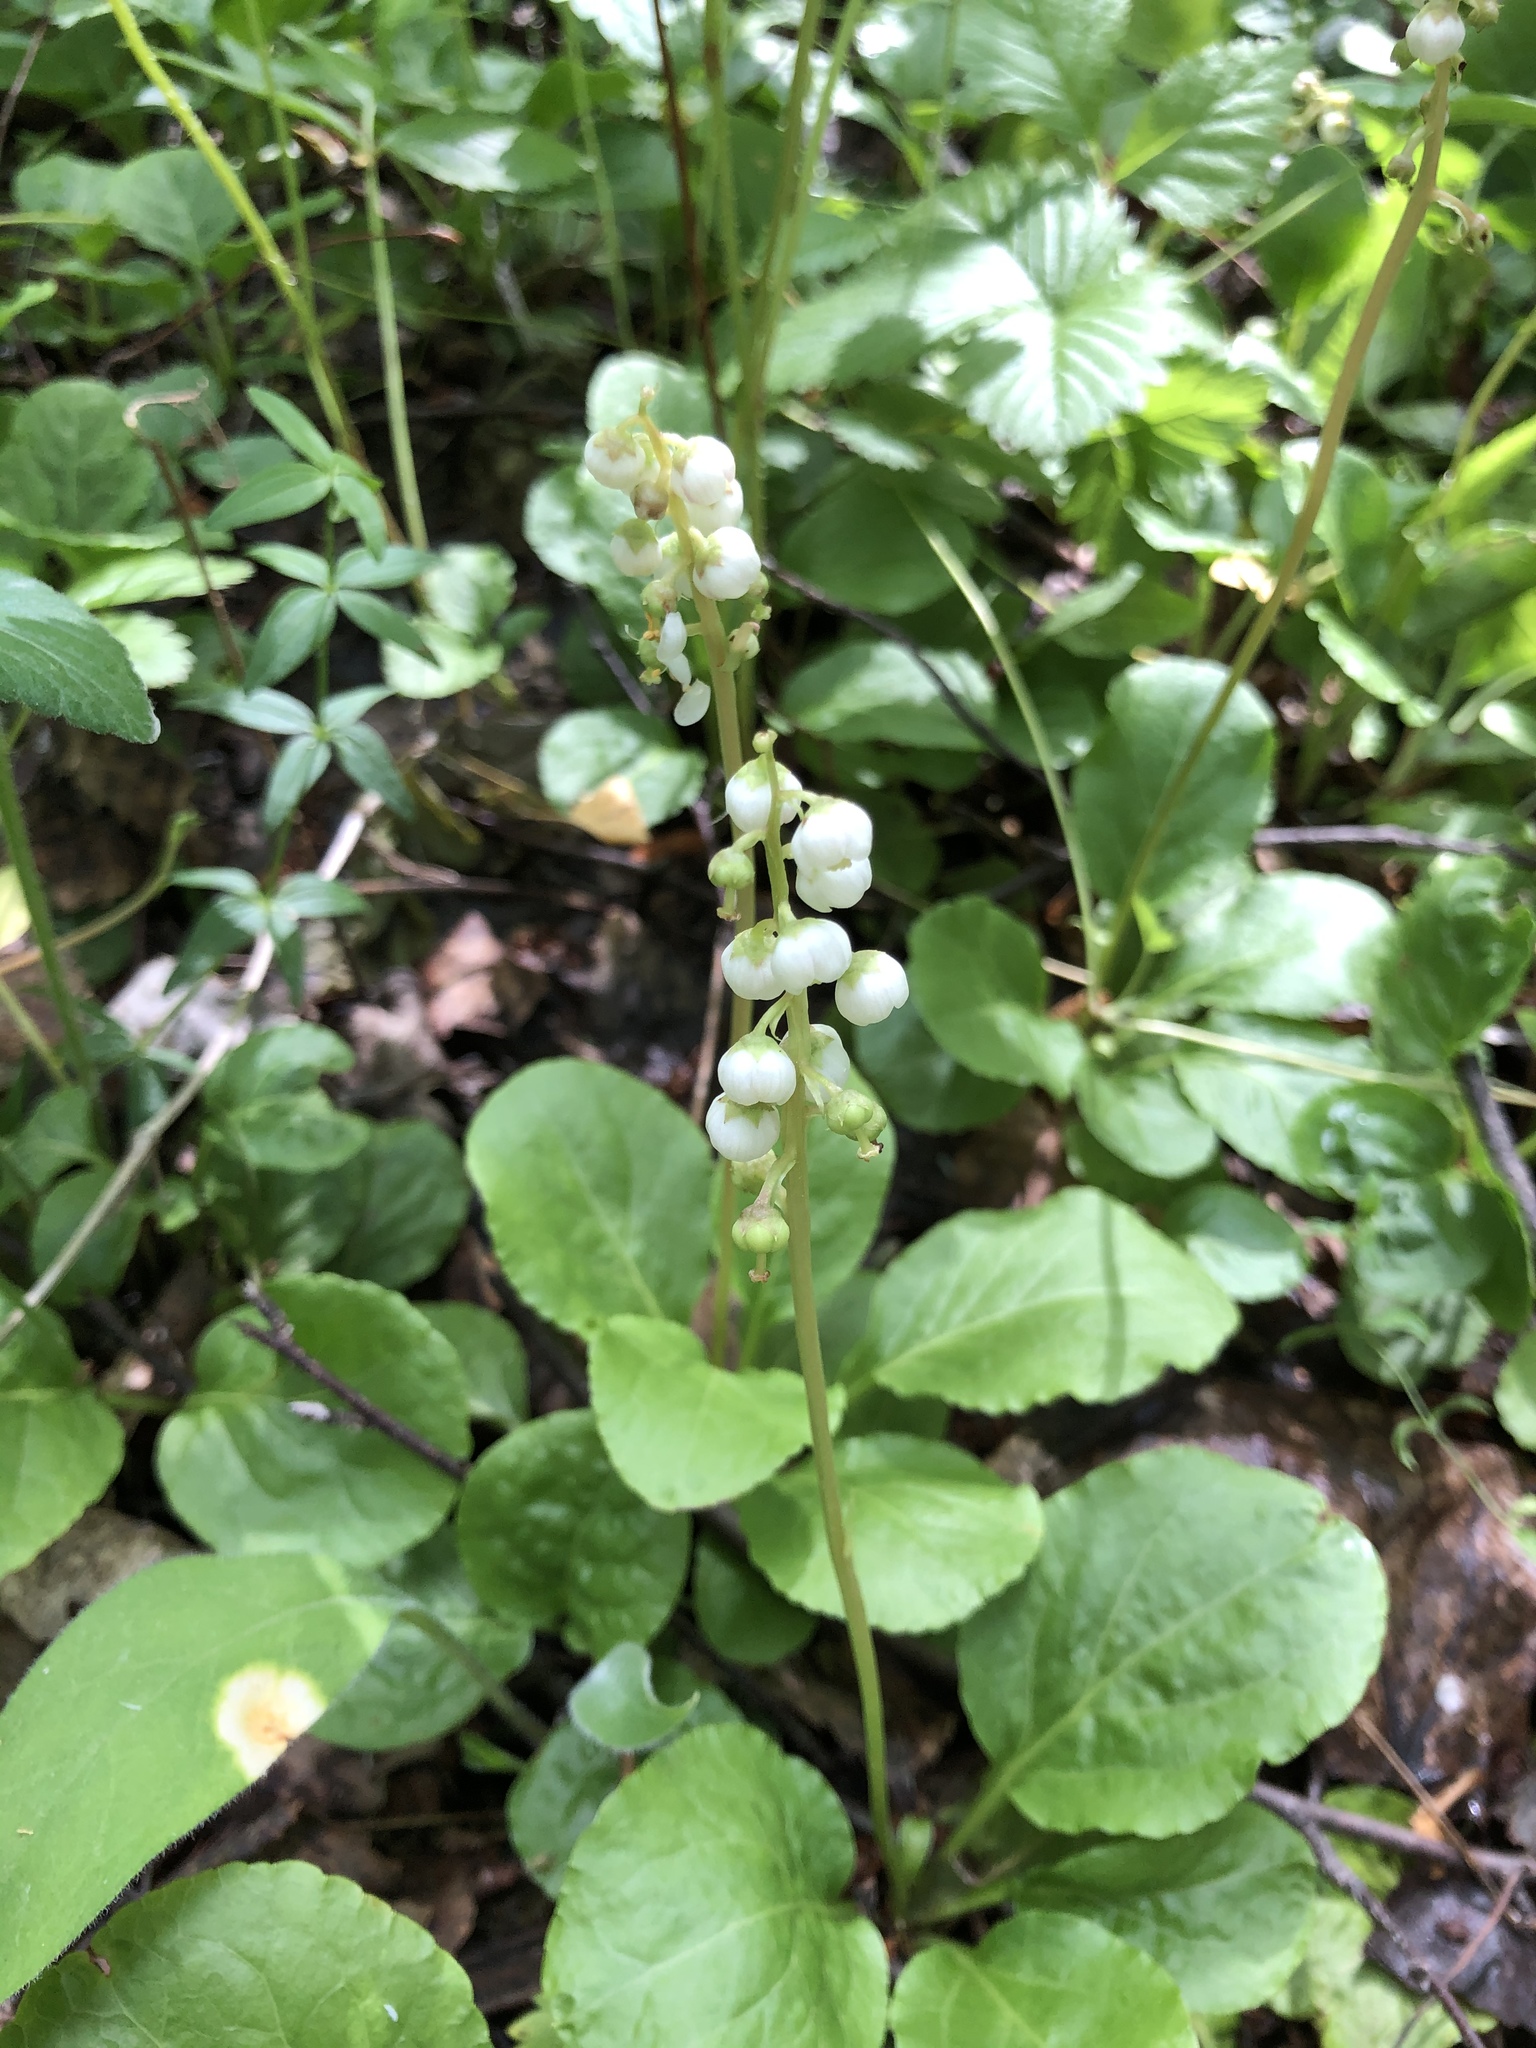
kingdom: Plantae
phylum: Tracheophyta
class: Magnoliopsida
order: Ericales
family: Ericaceae
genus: Pyrola
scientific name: Pyrola minor
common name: Common wintergreen
